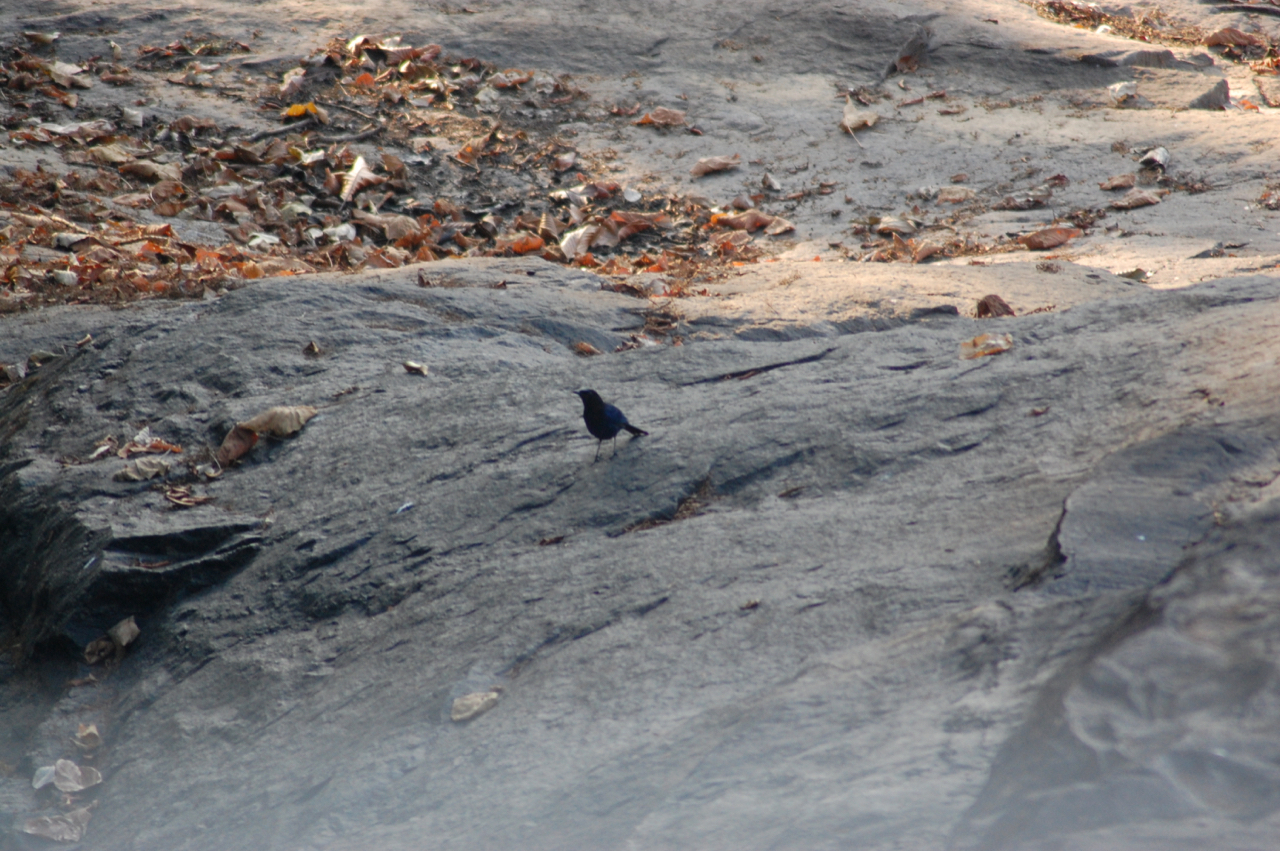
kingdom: Animalia
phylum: Chordata
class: Aves
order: Passeriformes
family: Muscicapidae
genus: Myophonus
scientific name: Myophonus horsfieldii
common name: Malabar whistling-thrush
